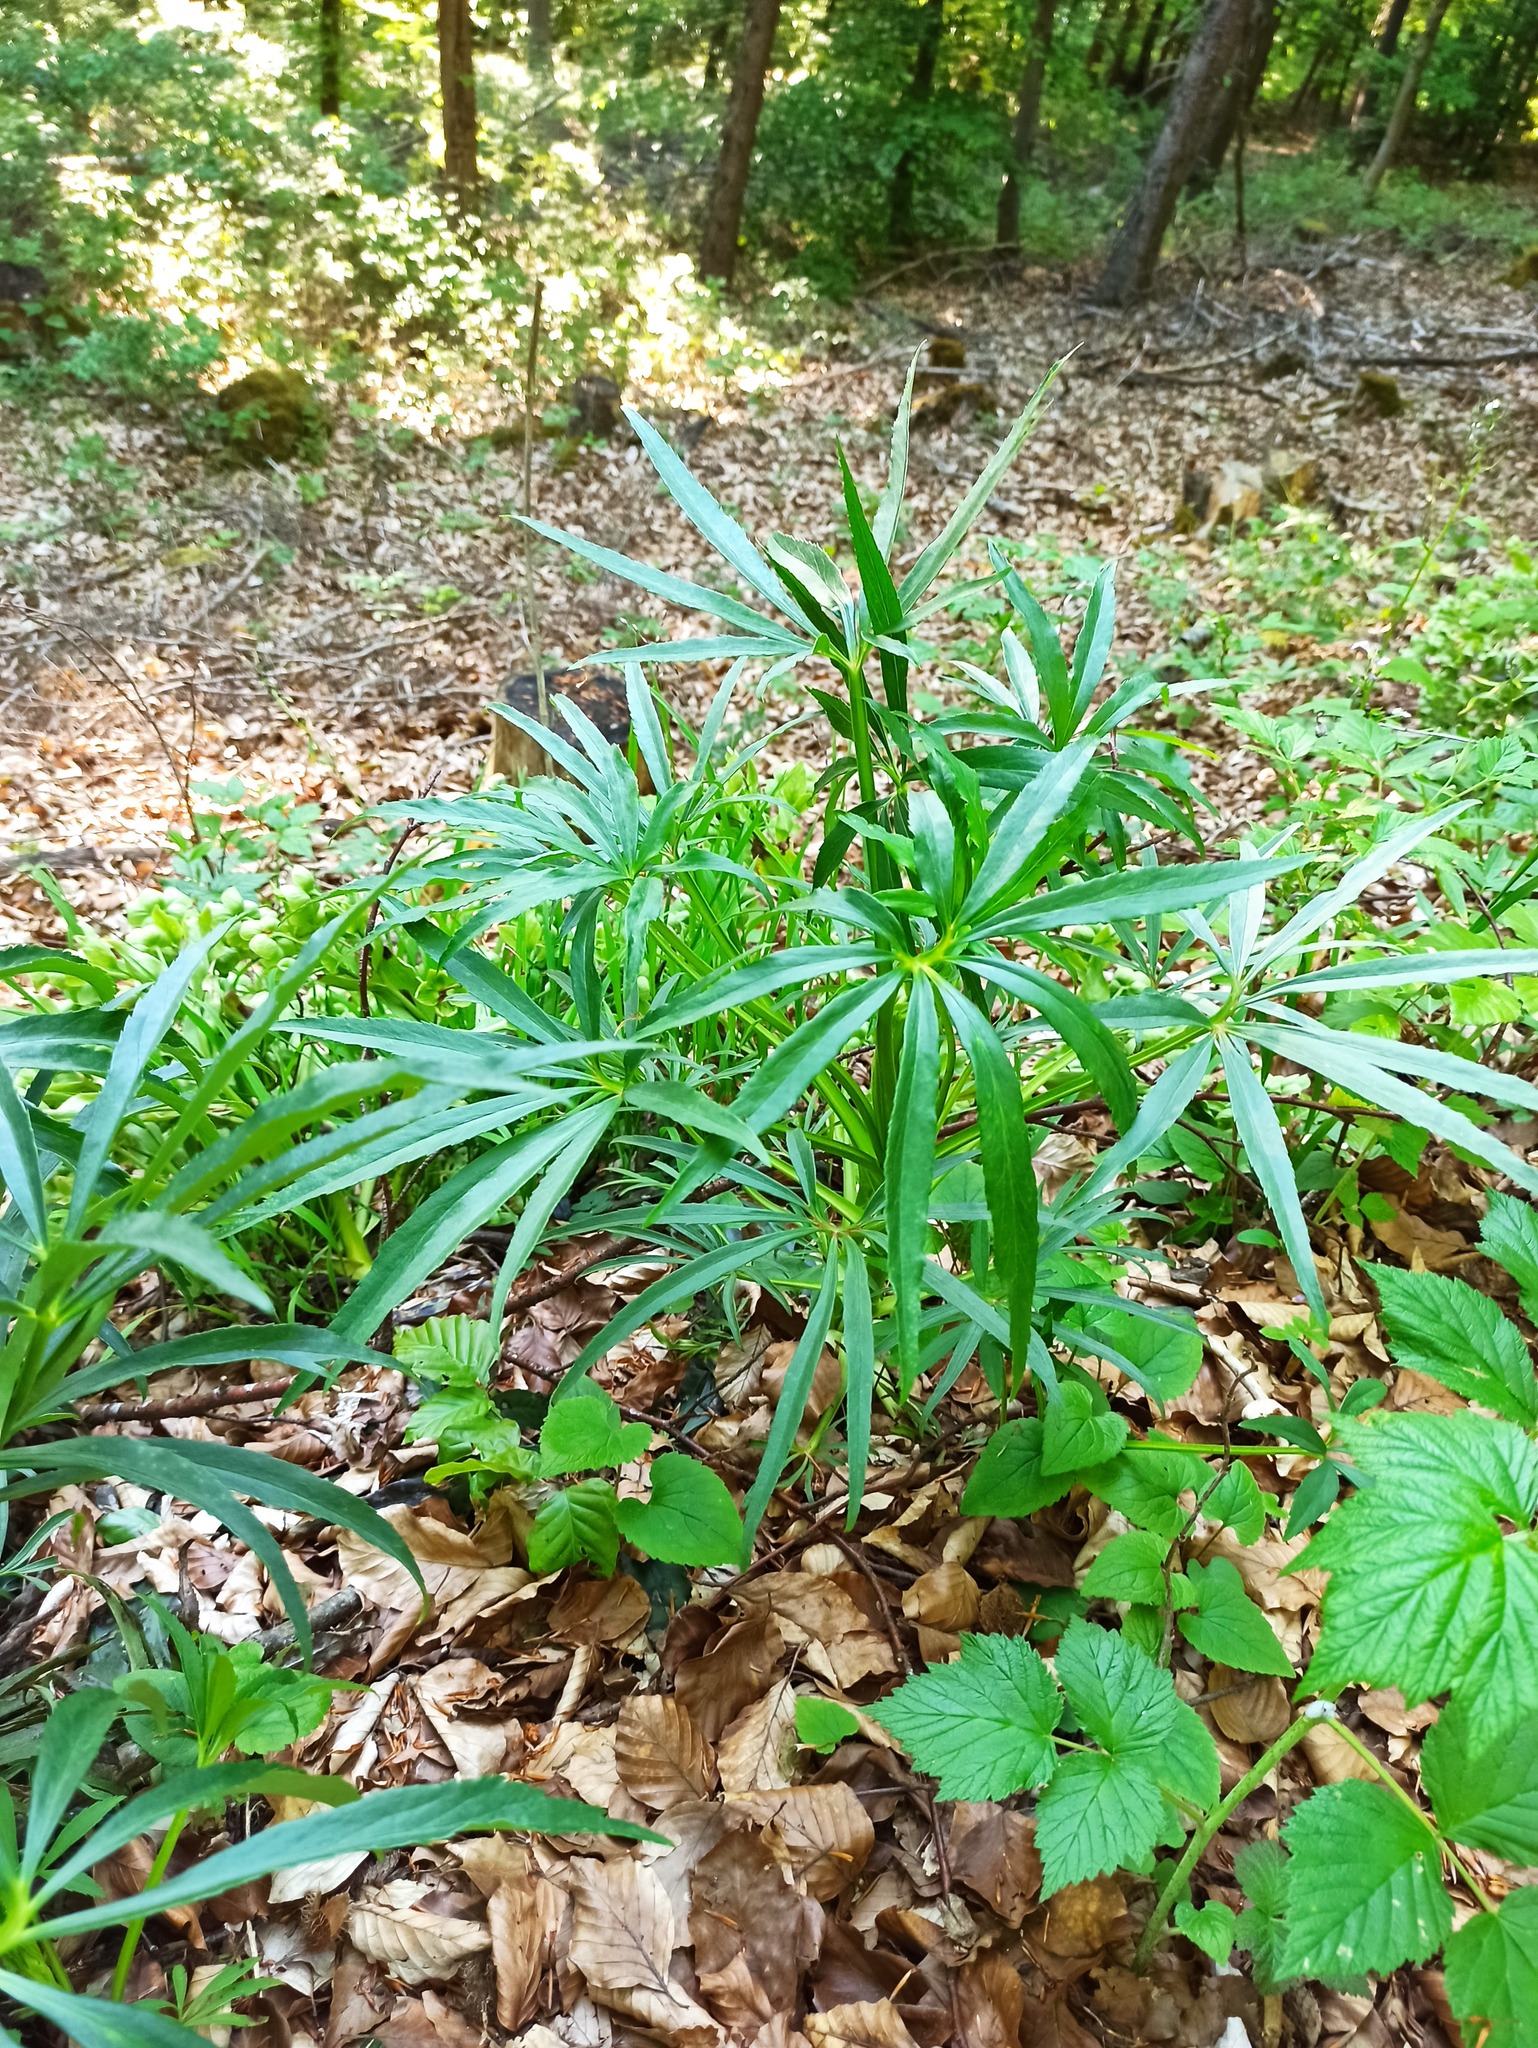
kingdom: Plantae
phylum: Tracheophyta
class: Magnoliopsida
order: Ranunculales
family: Ranunculaceae
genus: Helleborus
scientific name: Helleborus foetidus
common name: Stinking hellebore
